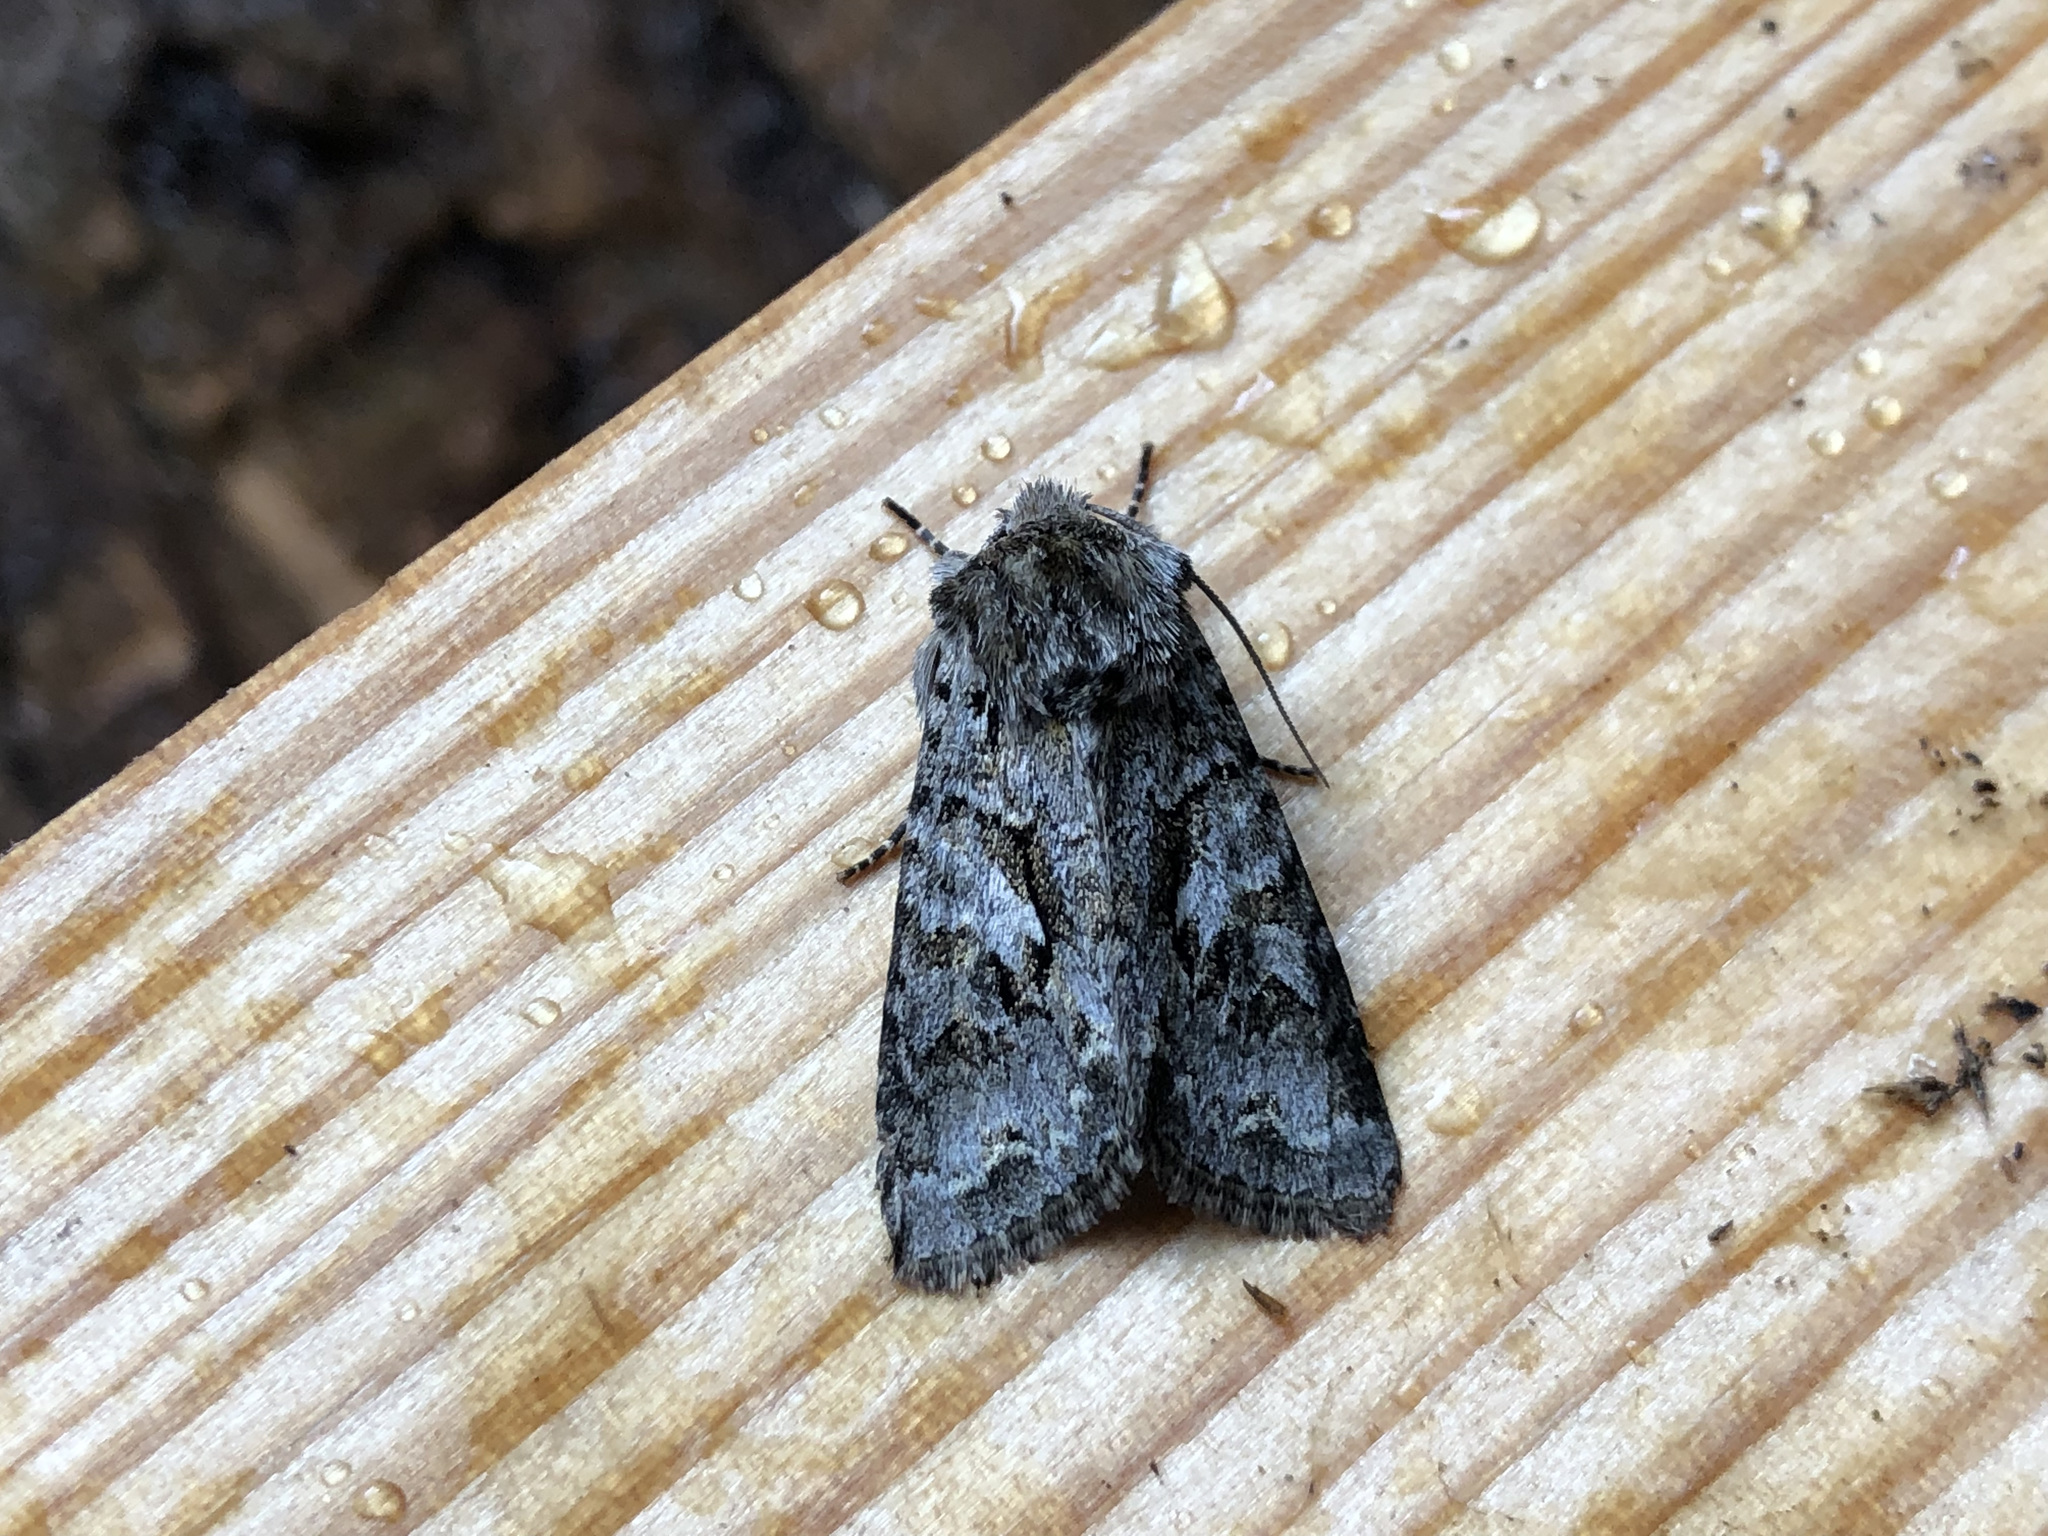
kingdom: Animalia
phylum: Arthropoda
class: Insecta
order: Lepidoptera
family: Noctuidae
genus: Hada
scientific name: Hada plebeja
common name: Shears
